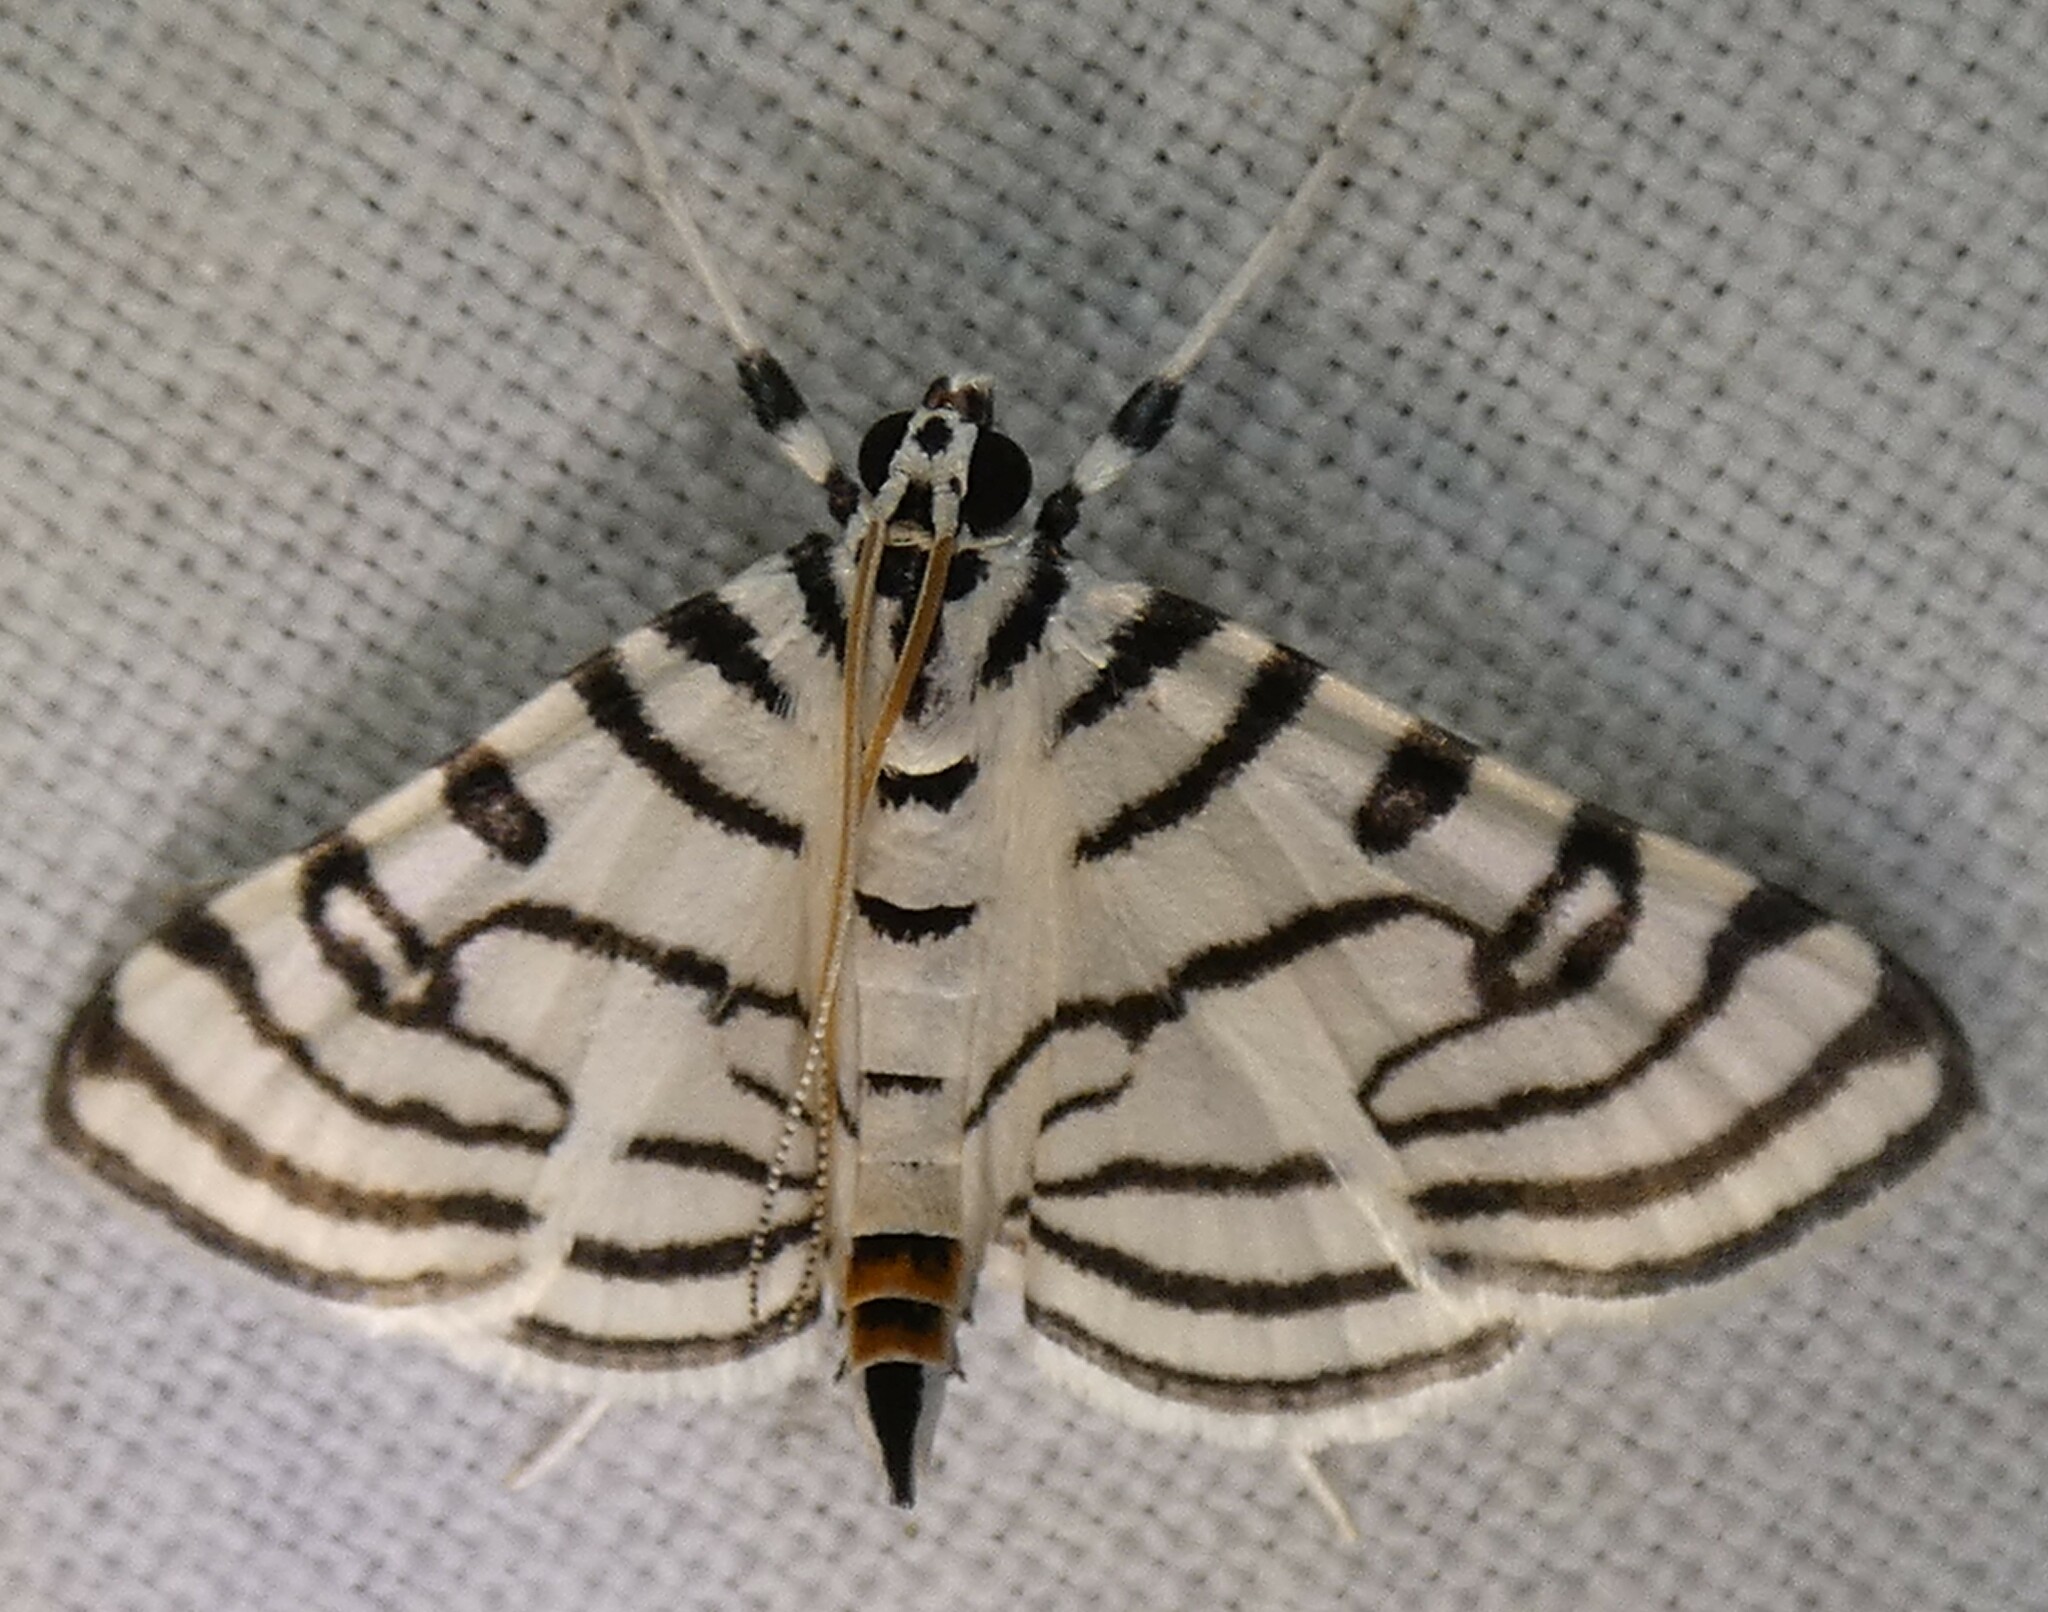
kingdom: Animalia
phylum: Arthropoda
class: Insecta
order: Lepidoptera
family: Crambidae
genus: Conchylodes
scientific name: Conchylodes ovulalis
